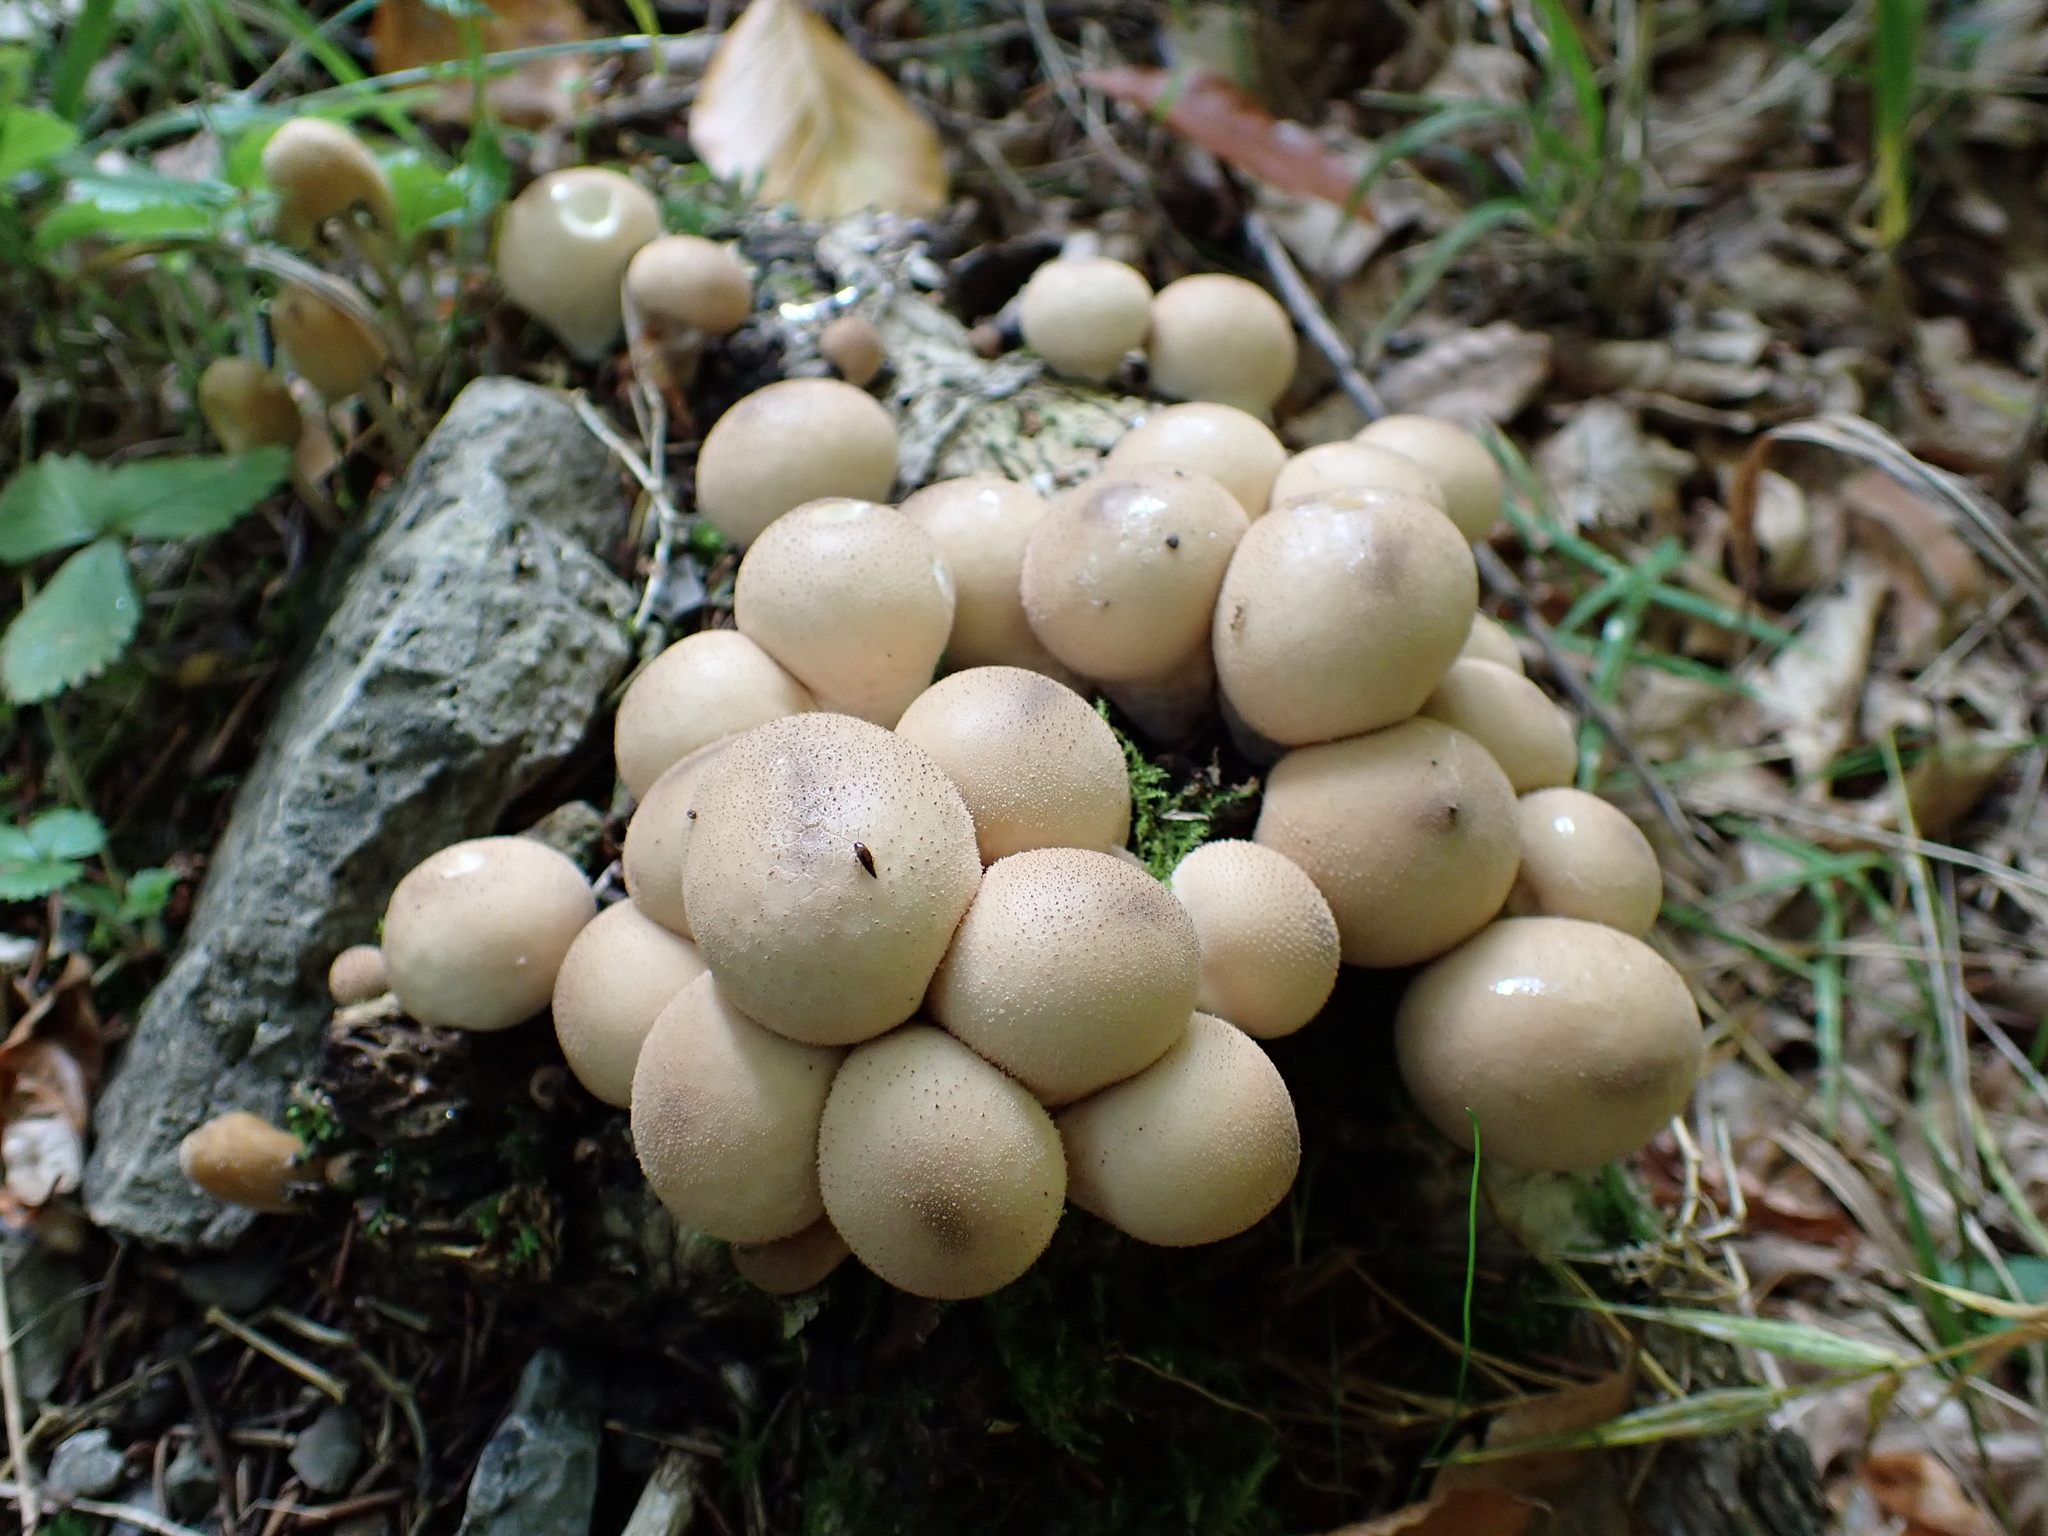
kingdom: Fungi
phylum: Basidiomycota
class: Agaricomycetes
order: Agaricales
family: Lycoperdaceae
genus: Apioperdon
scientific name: Apioperdon pyriforme
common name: Pear-shaped puffball
